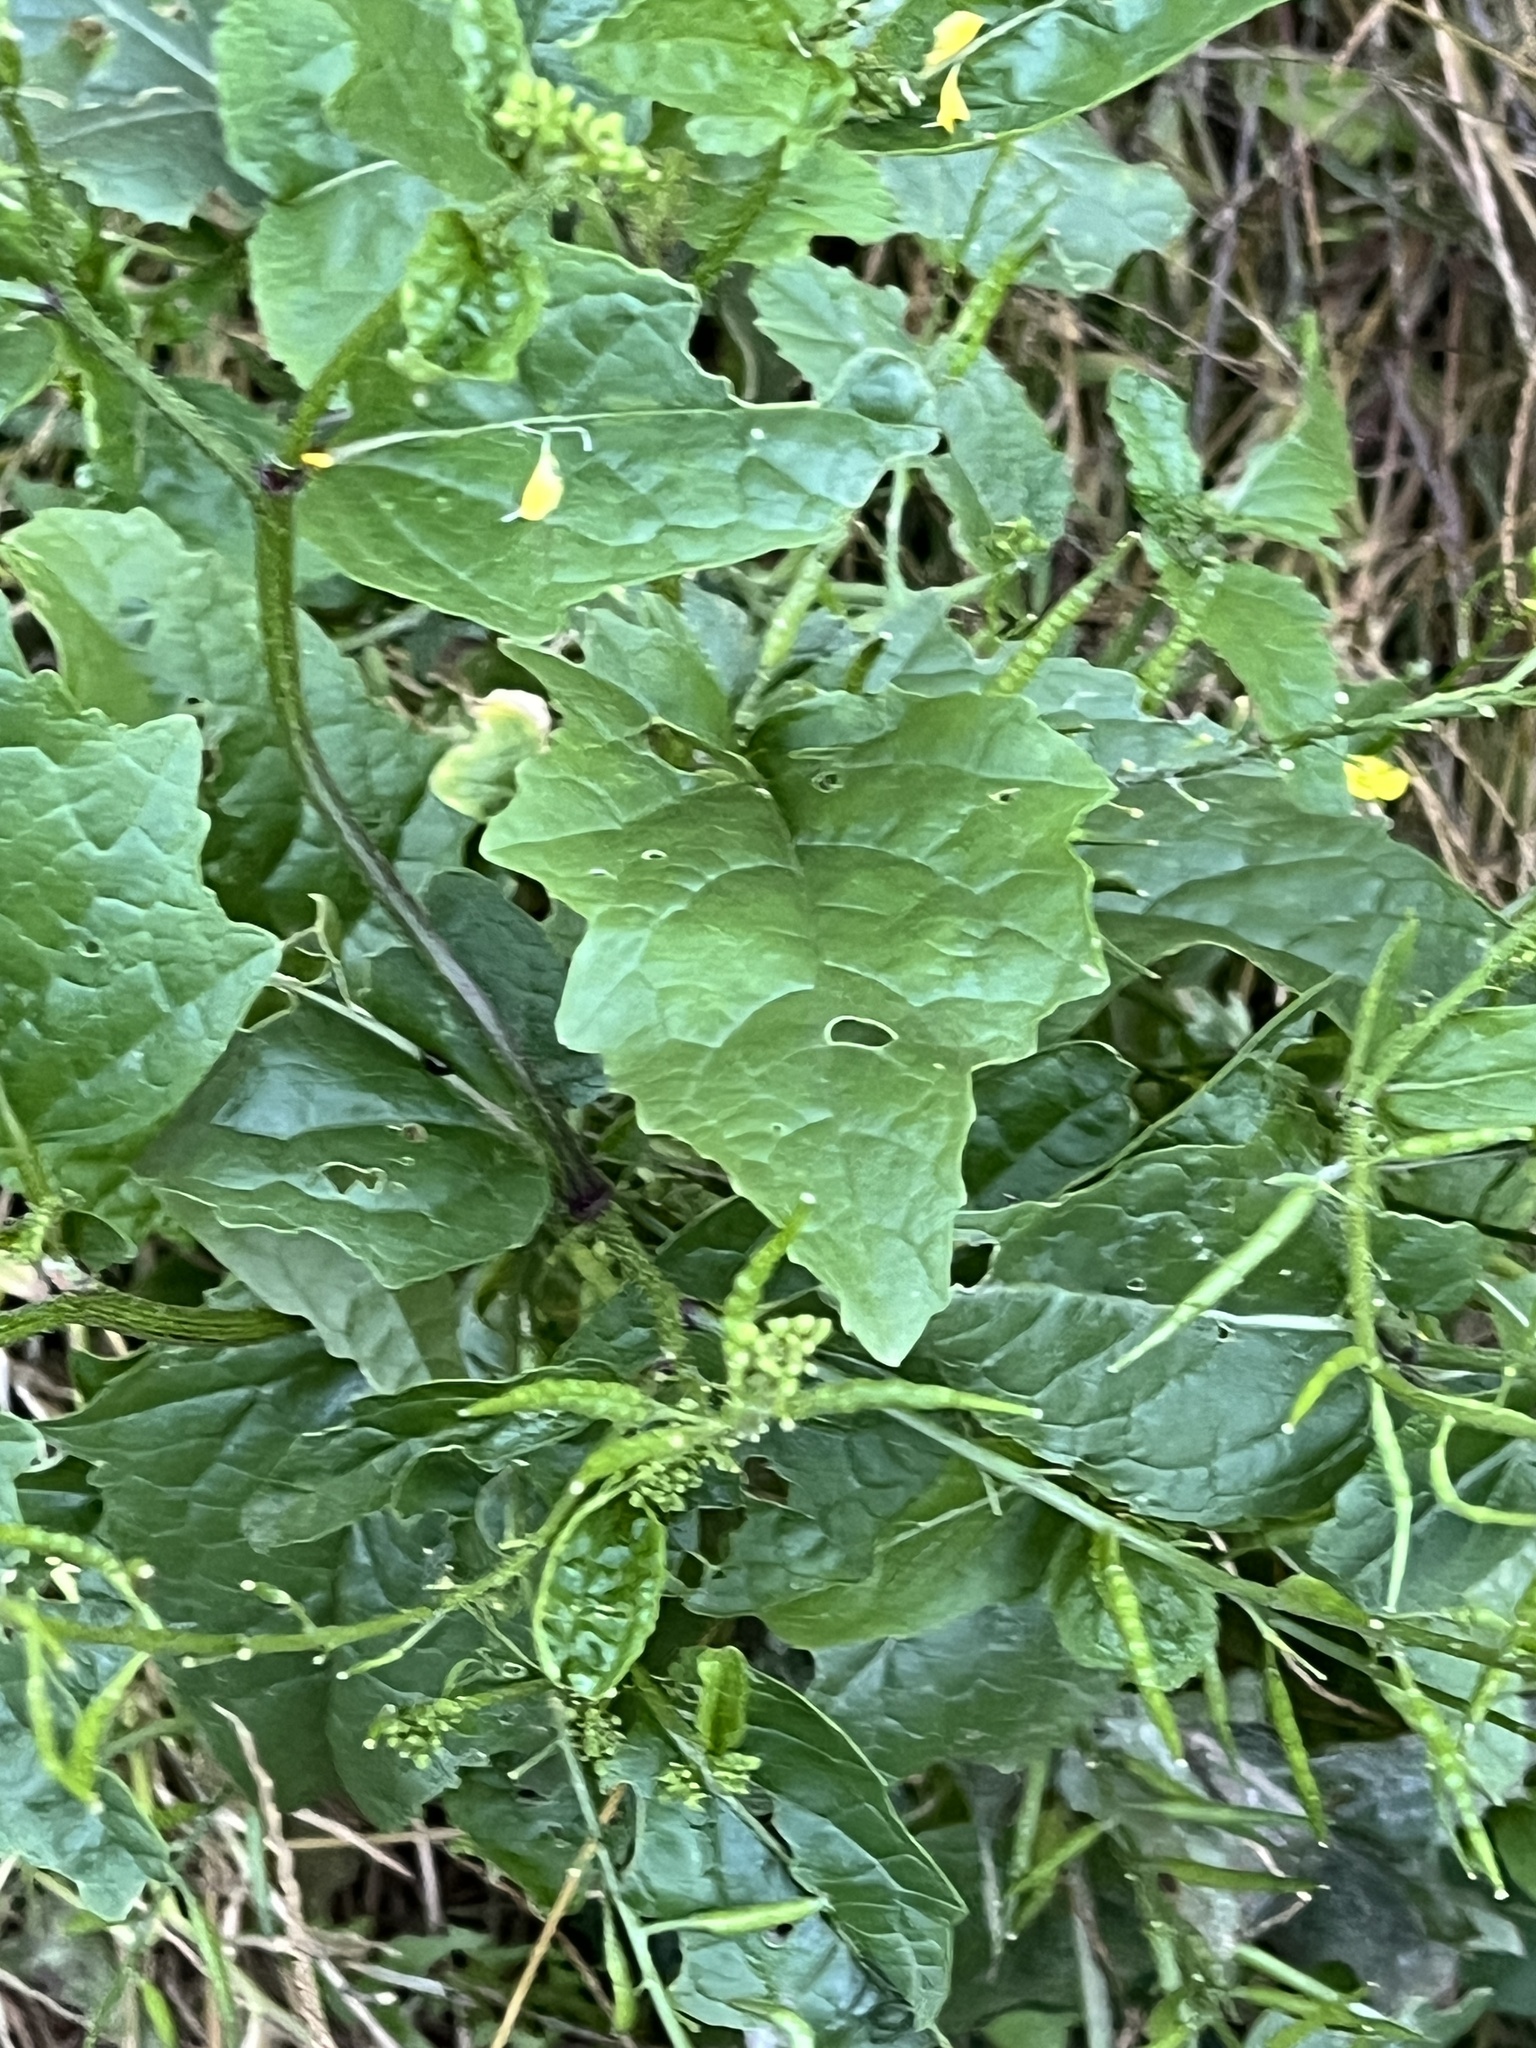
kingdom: Plantae
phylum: Tracheophyta
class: Magnoliopsida
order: Brassicales
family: Brassicaceae
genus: Sinapis
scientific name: Sinapis arvensis
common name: Charlock
